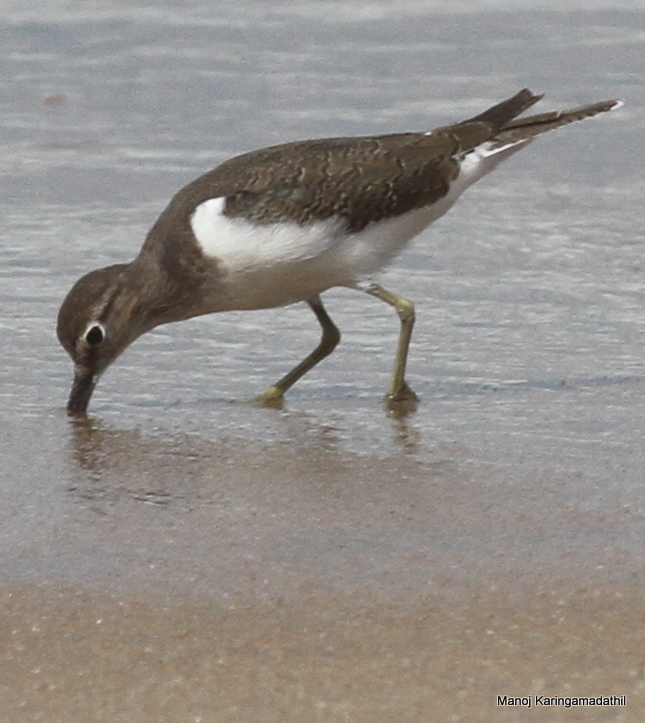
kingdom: Animalia
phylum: Chordata
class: Aves
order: Charadriiformes
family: Scolopacidae
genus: Actitis
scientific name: Actitis hypoleucos
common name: Common sandpiper
